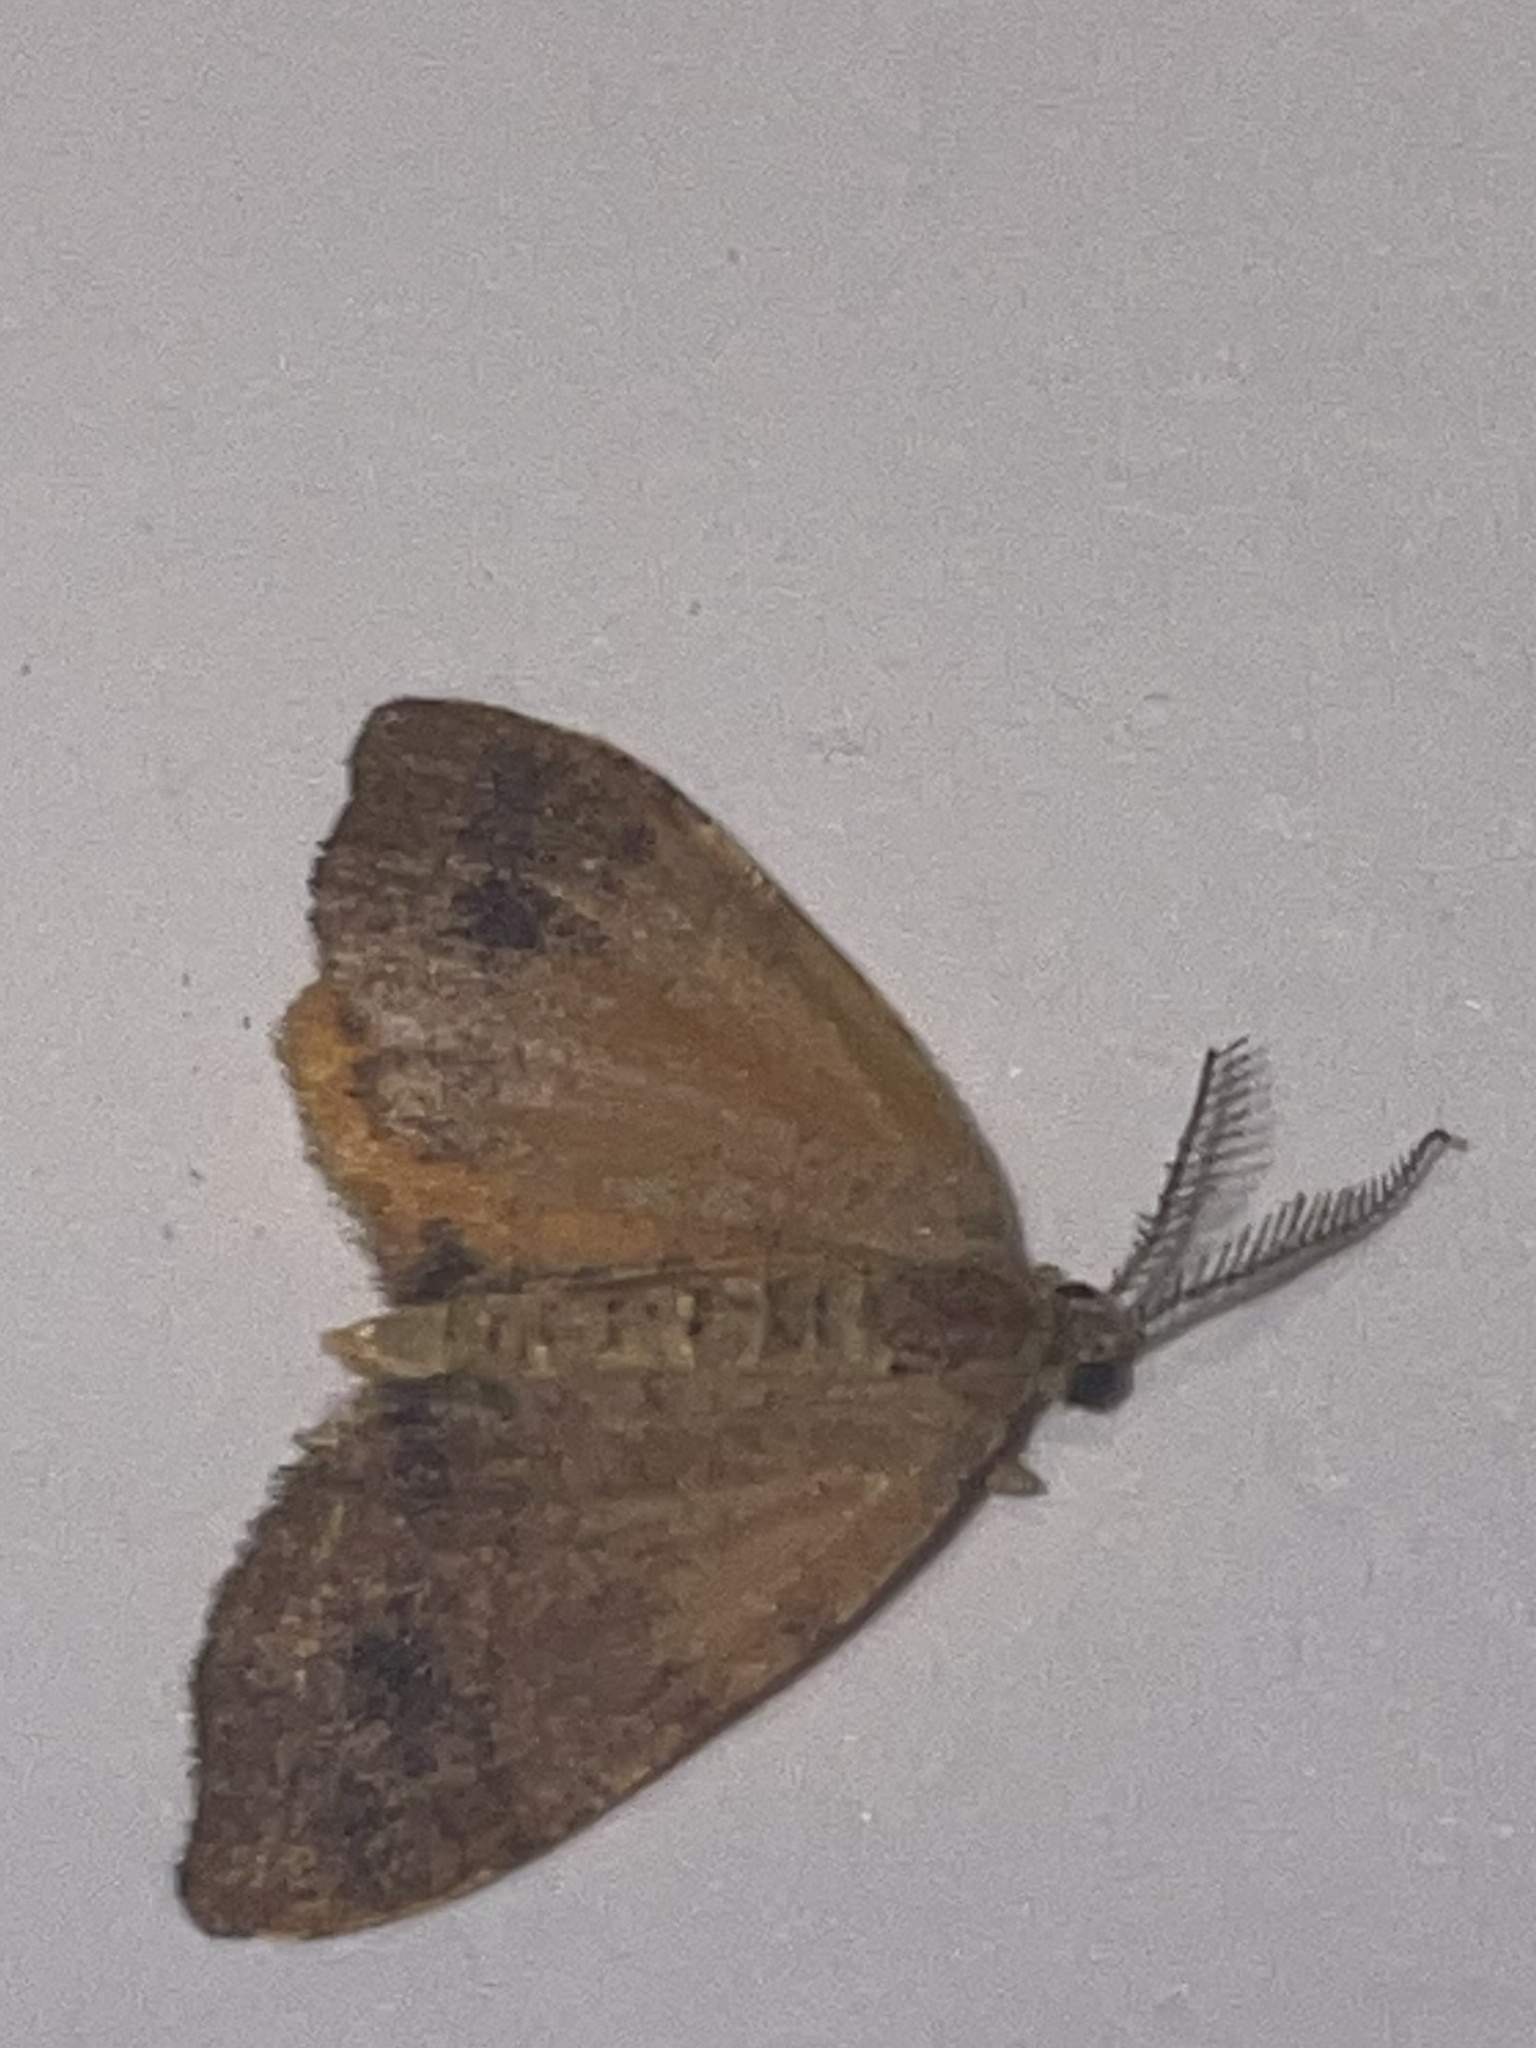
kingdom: Animalia
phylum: Arthropoda
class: Insecta
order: Lepidoptera
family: Geometridae
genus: Mellilla
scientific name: Mellilla xanthometata
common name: Orange wing moth
